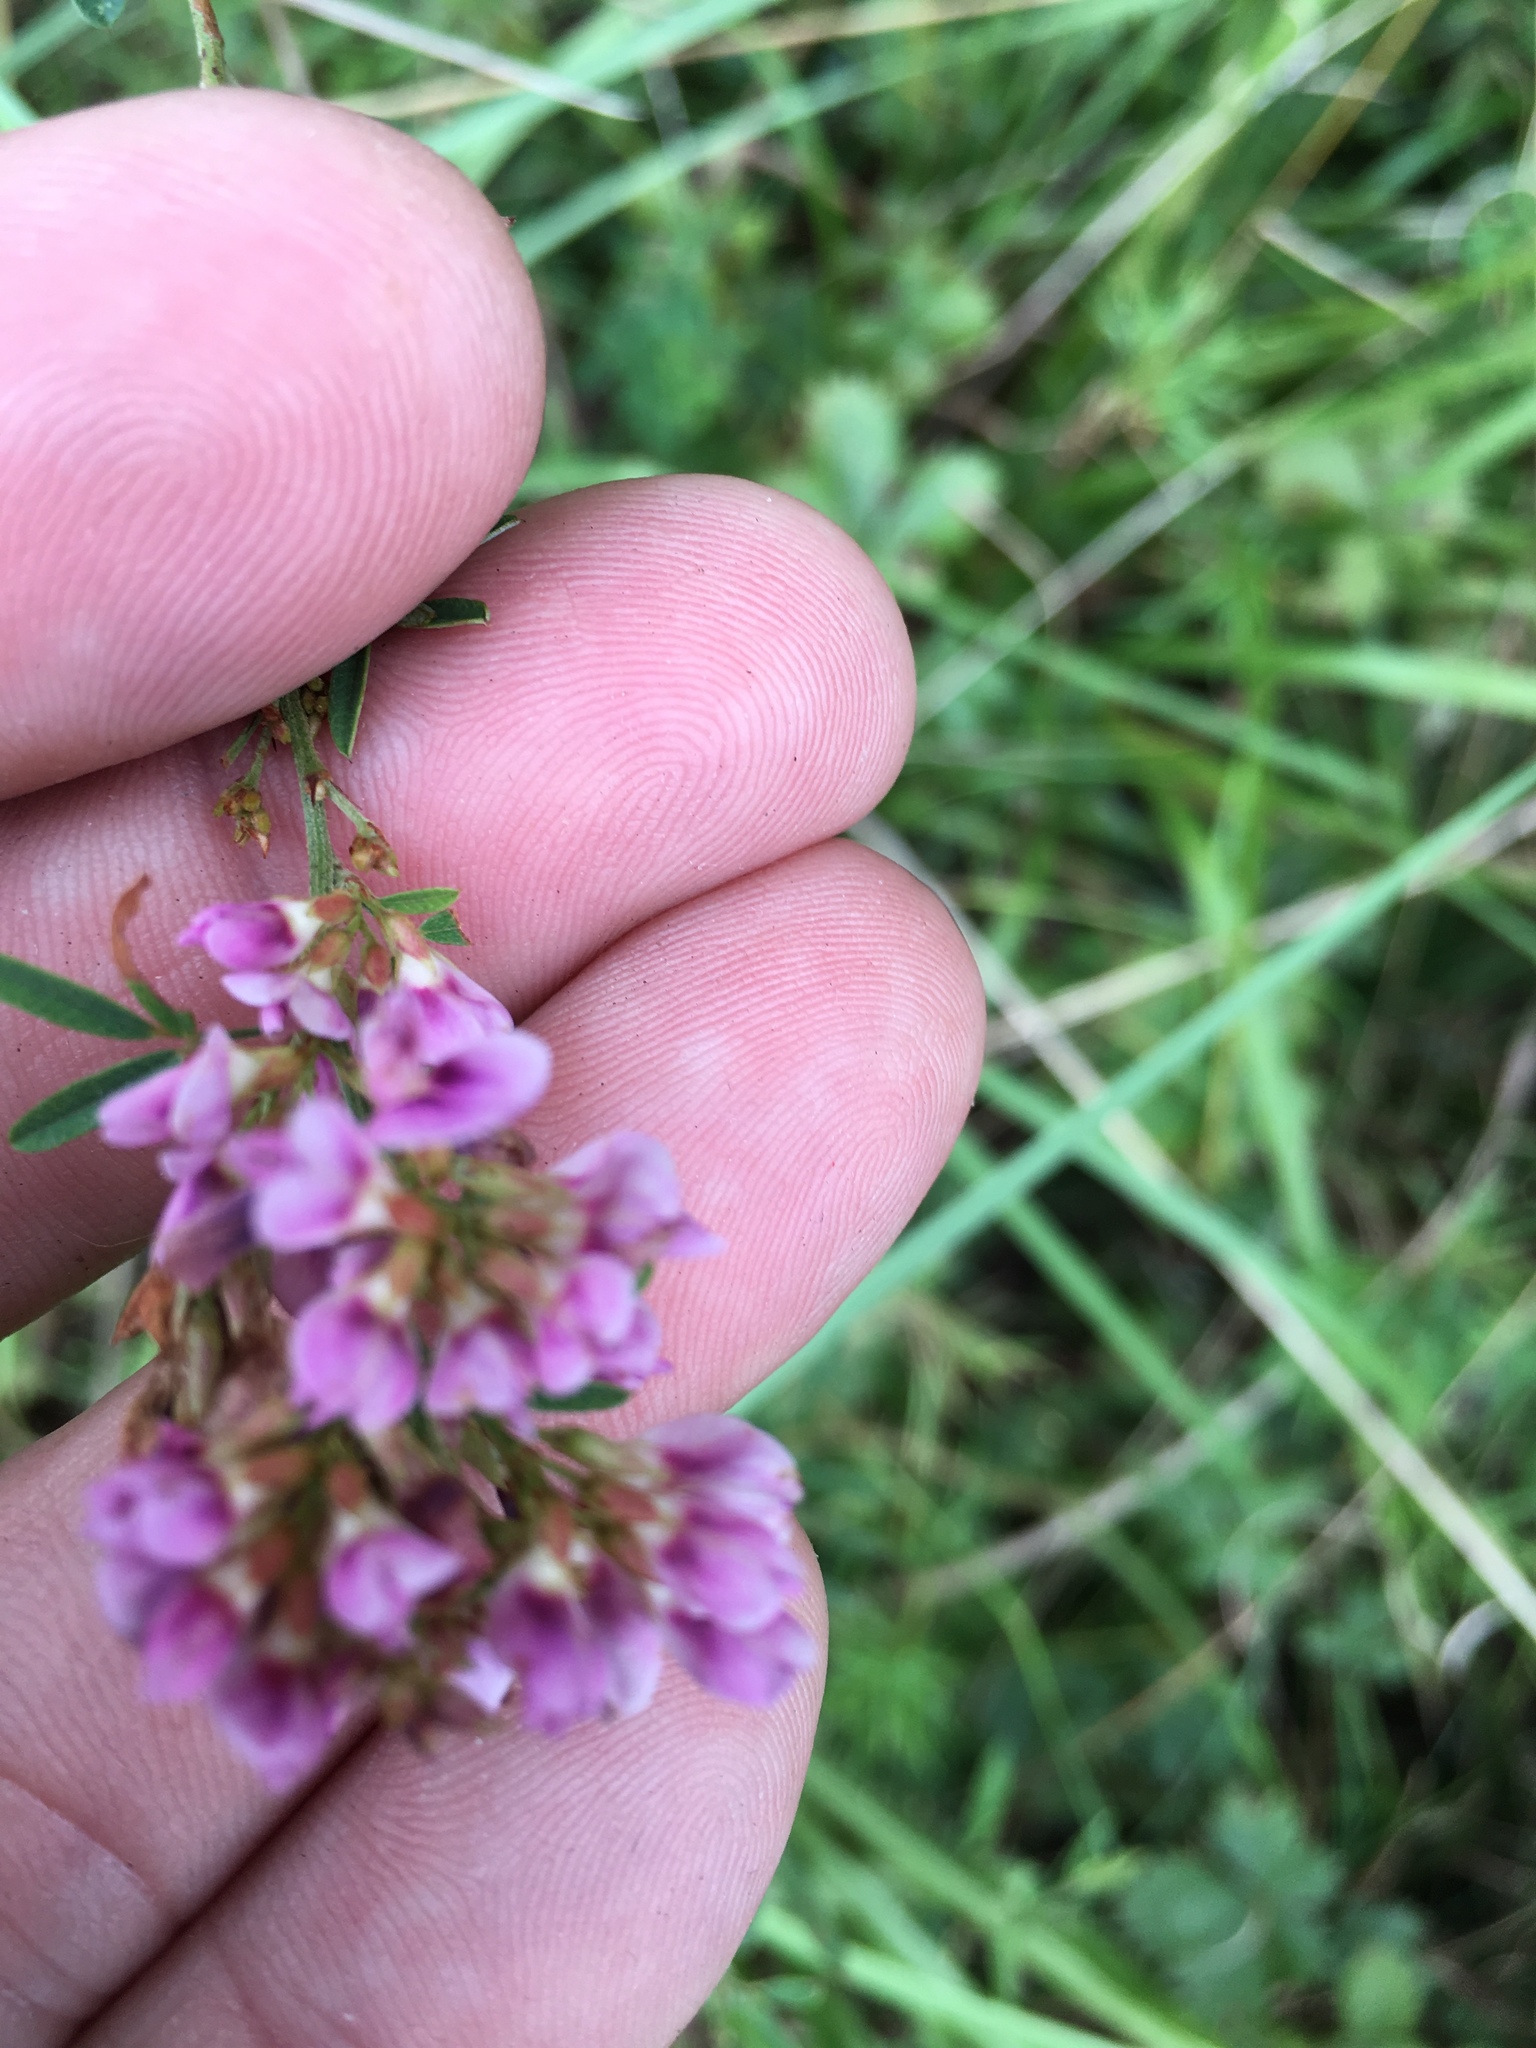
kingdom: Plantae
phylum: Tracheophyta
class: Magnoliopsida
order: Fabales
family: Fabaceae
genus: Lespedeza
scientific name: Lespedeza virginica
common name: Slender bush-clover
